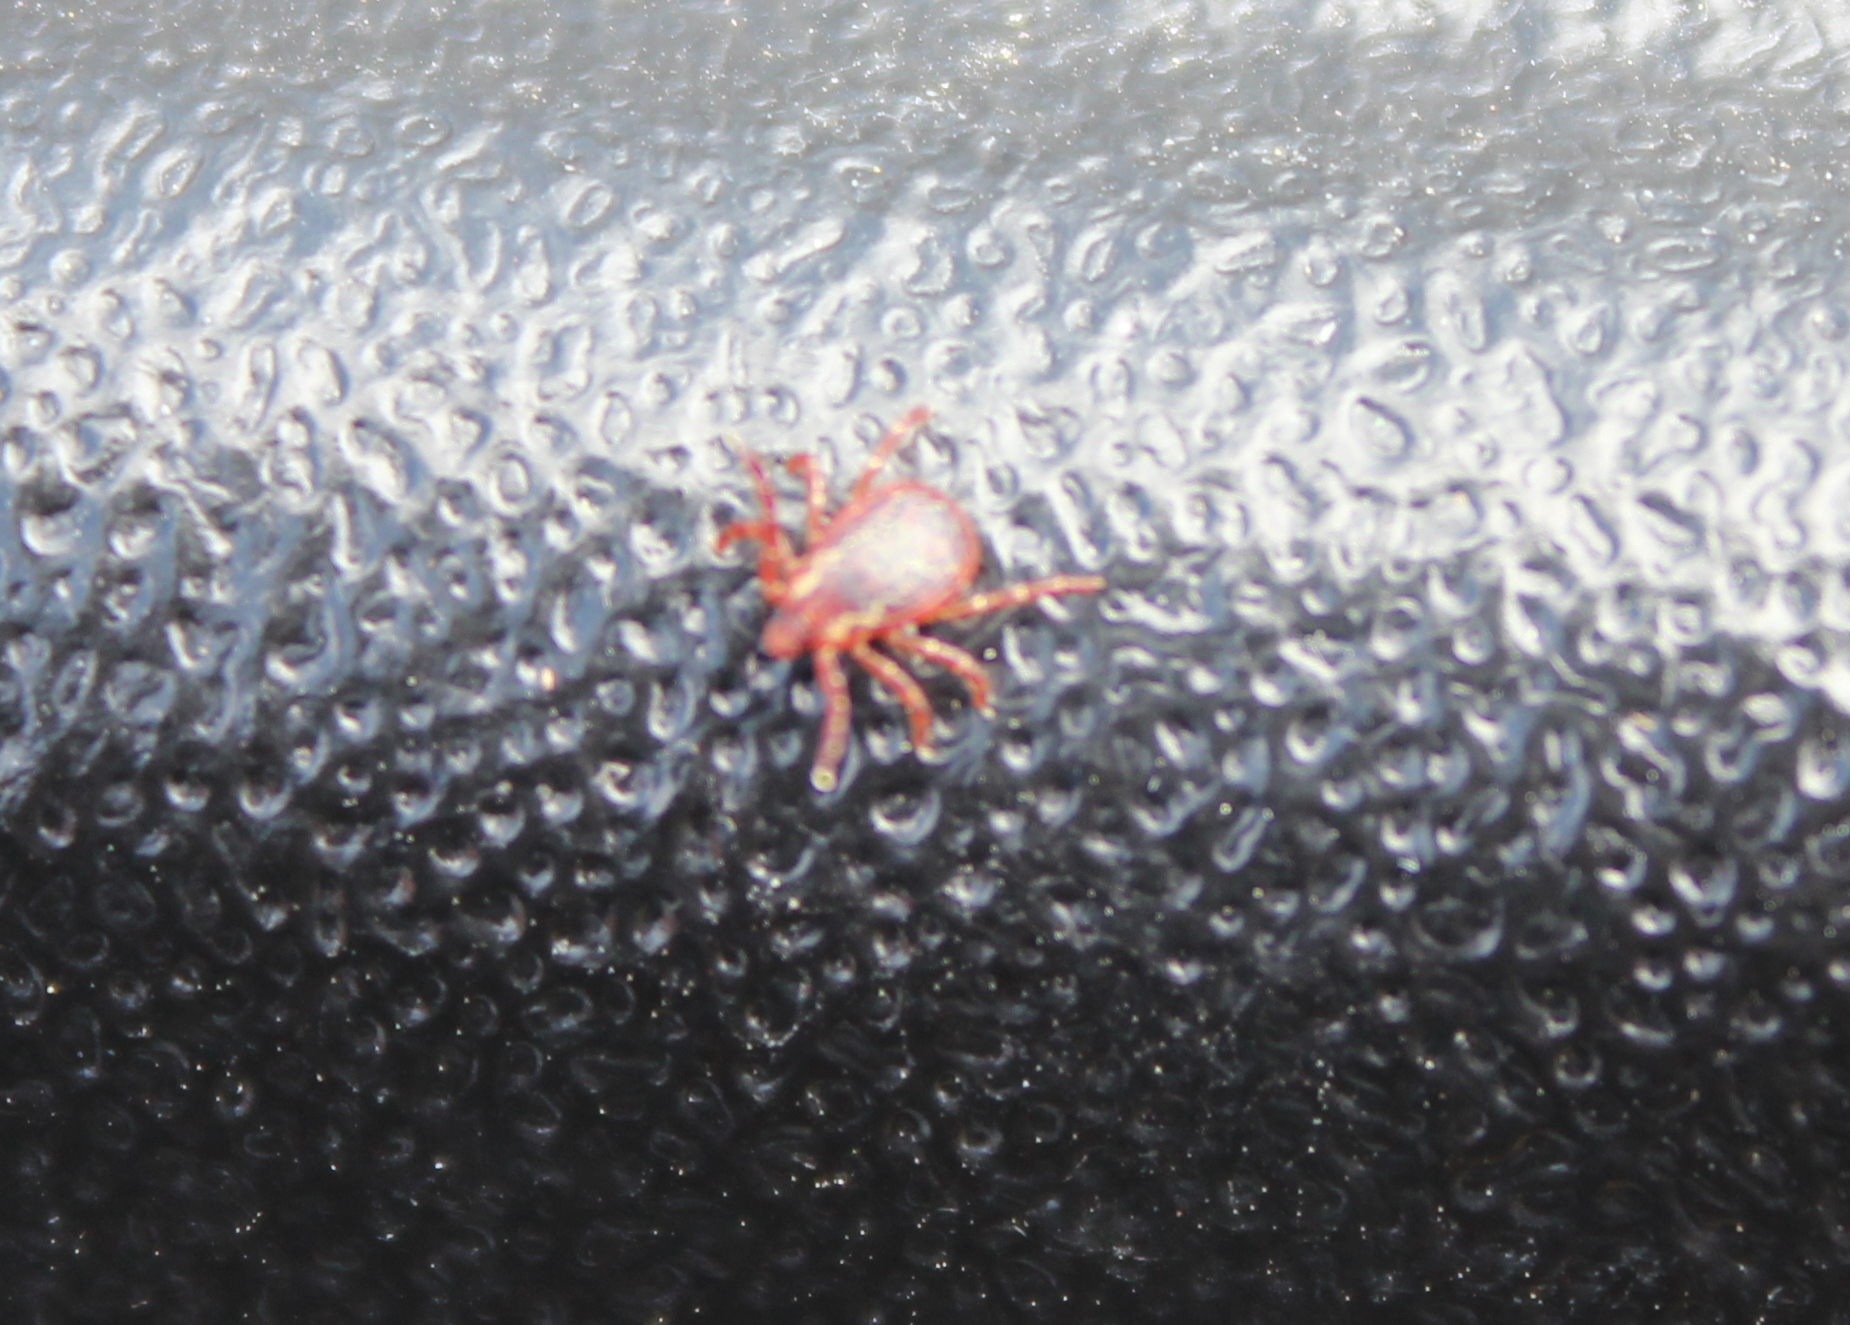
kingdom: Animalia
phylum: Arthropoda
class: Arachnida
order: Ixodida
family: Ixodidae
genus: Dermacentor
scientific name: Dermacentor variabilis
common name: American dog tick
